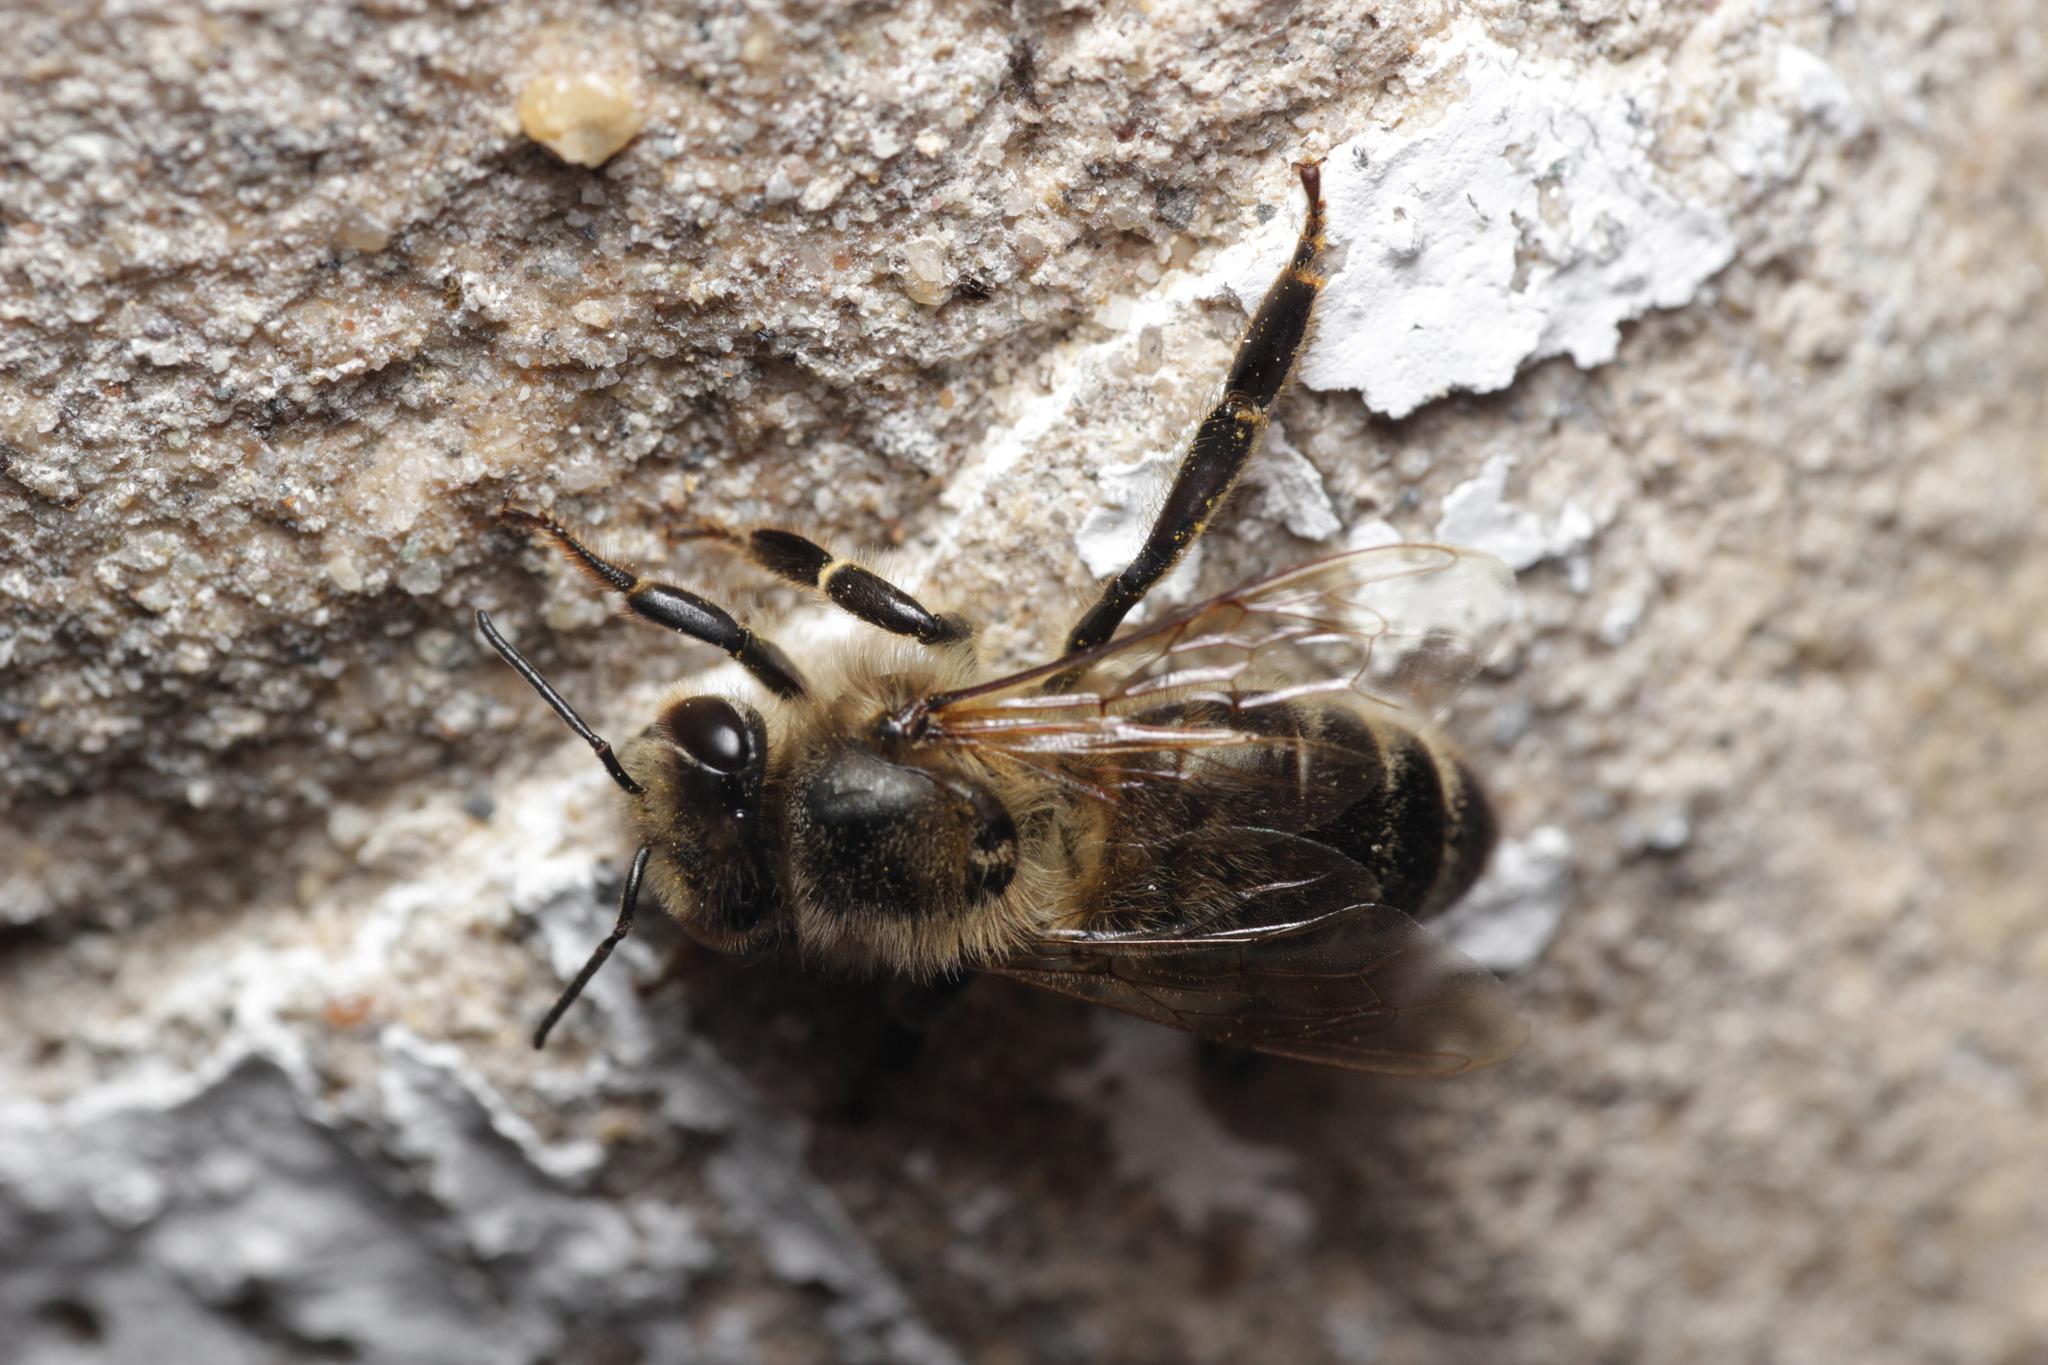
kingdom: Animalia
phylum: Arthropoda
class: Insecta
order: Hymenoptera
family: Apidae
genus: Apis
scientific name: Apis mellifera
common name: Honey bee
